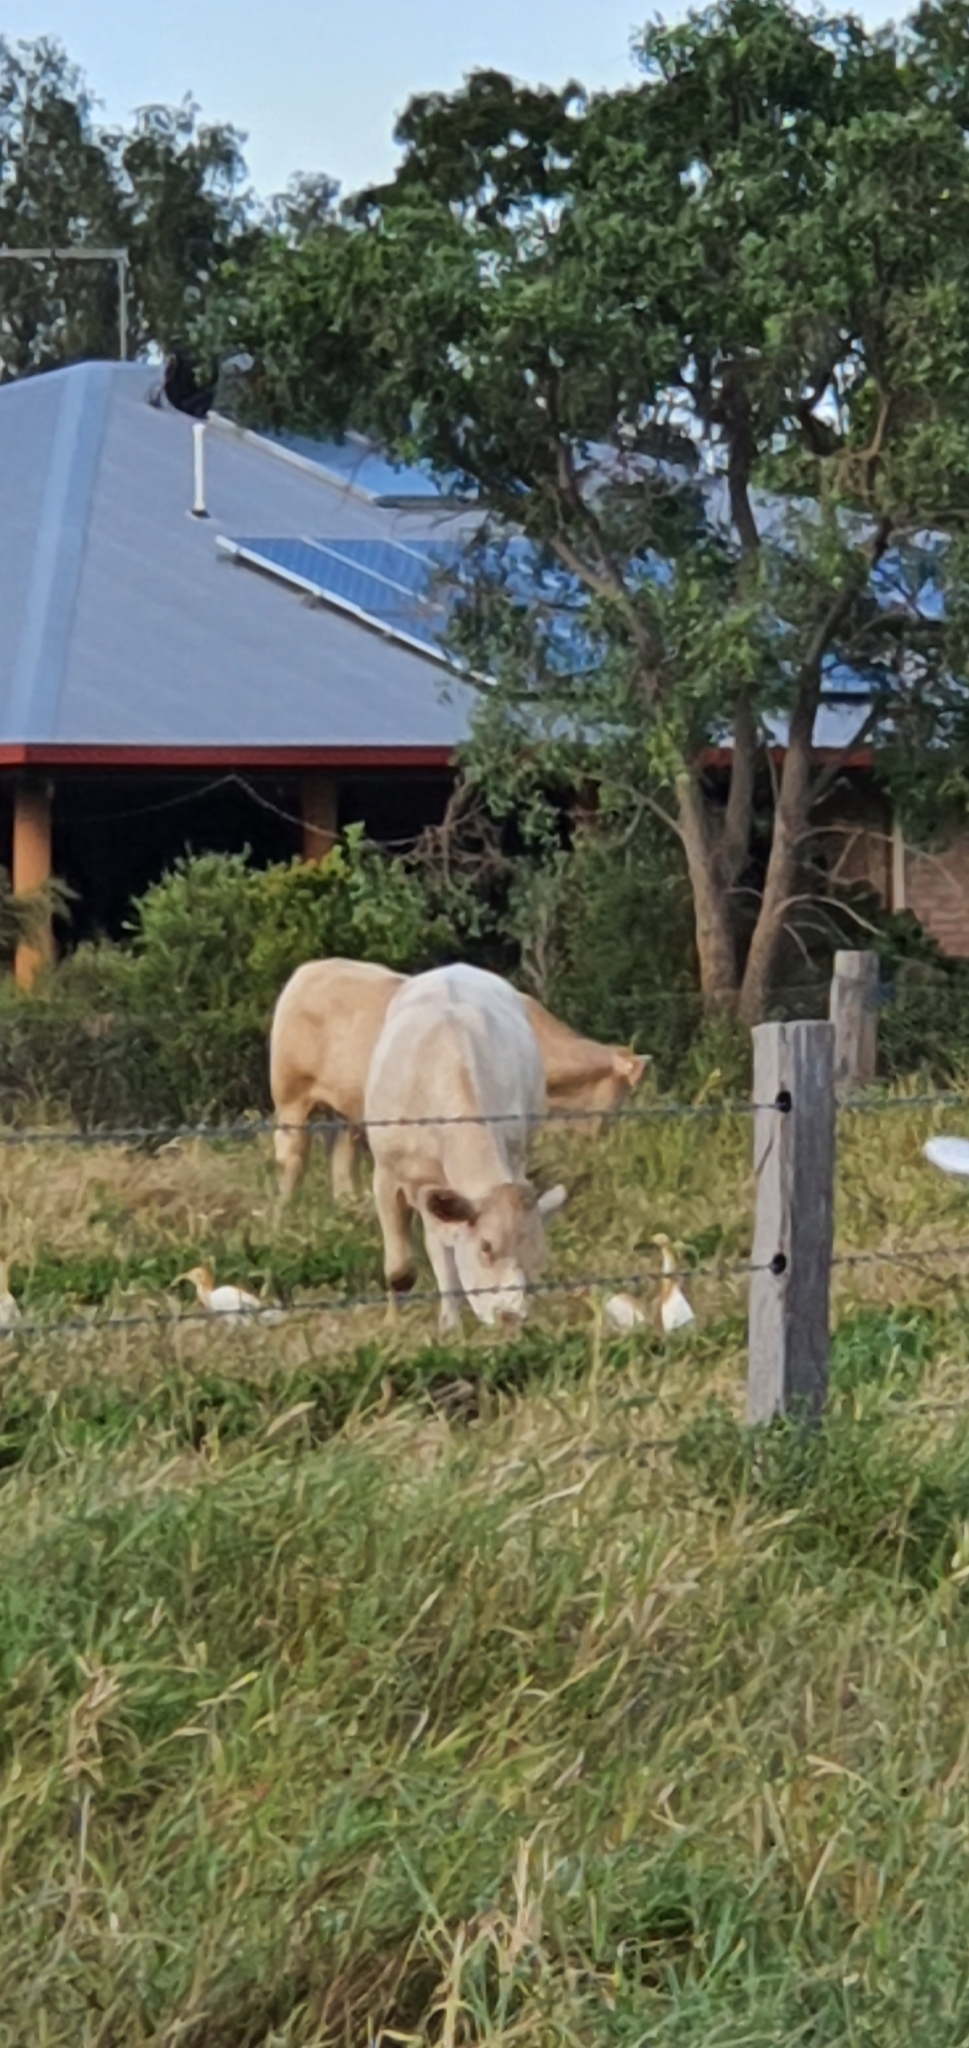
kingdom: Animalia
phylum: Chordata
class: Aves
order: Pelecaniformes
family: Ardeidae
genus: Bubulcus
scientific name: Bubulcus coromandus
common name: Eastern cattle egret
